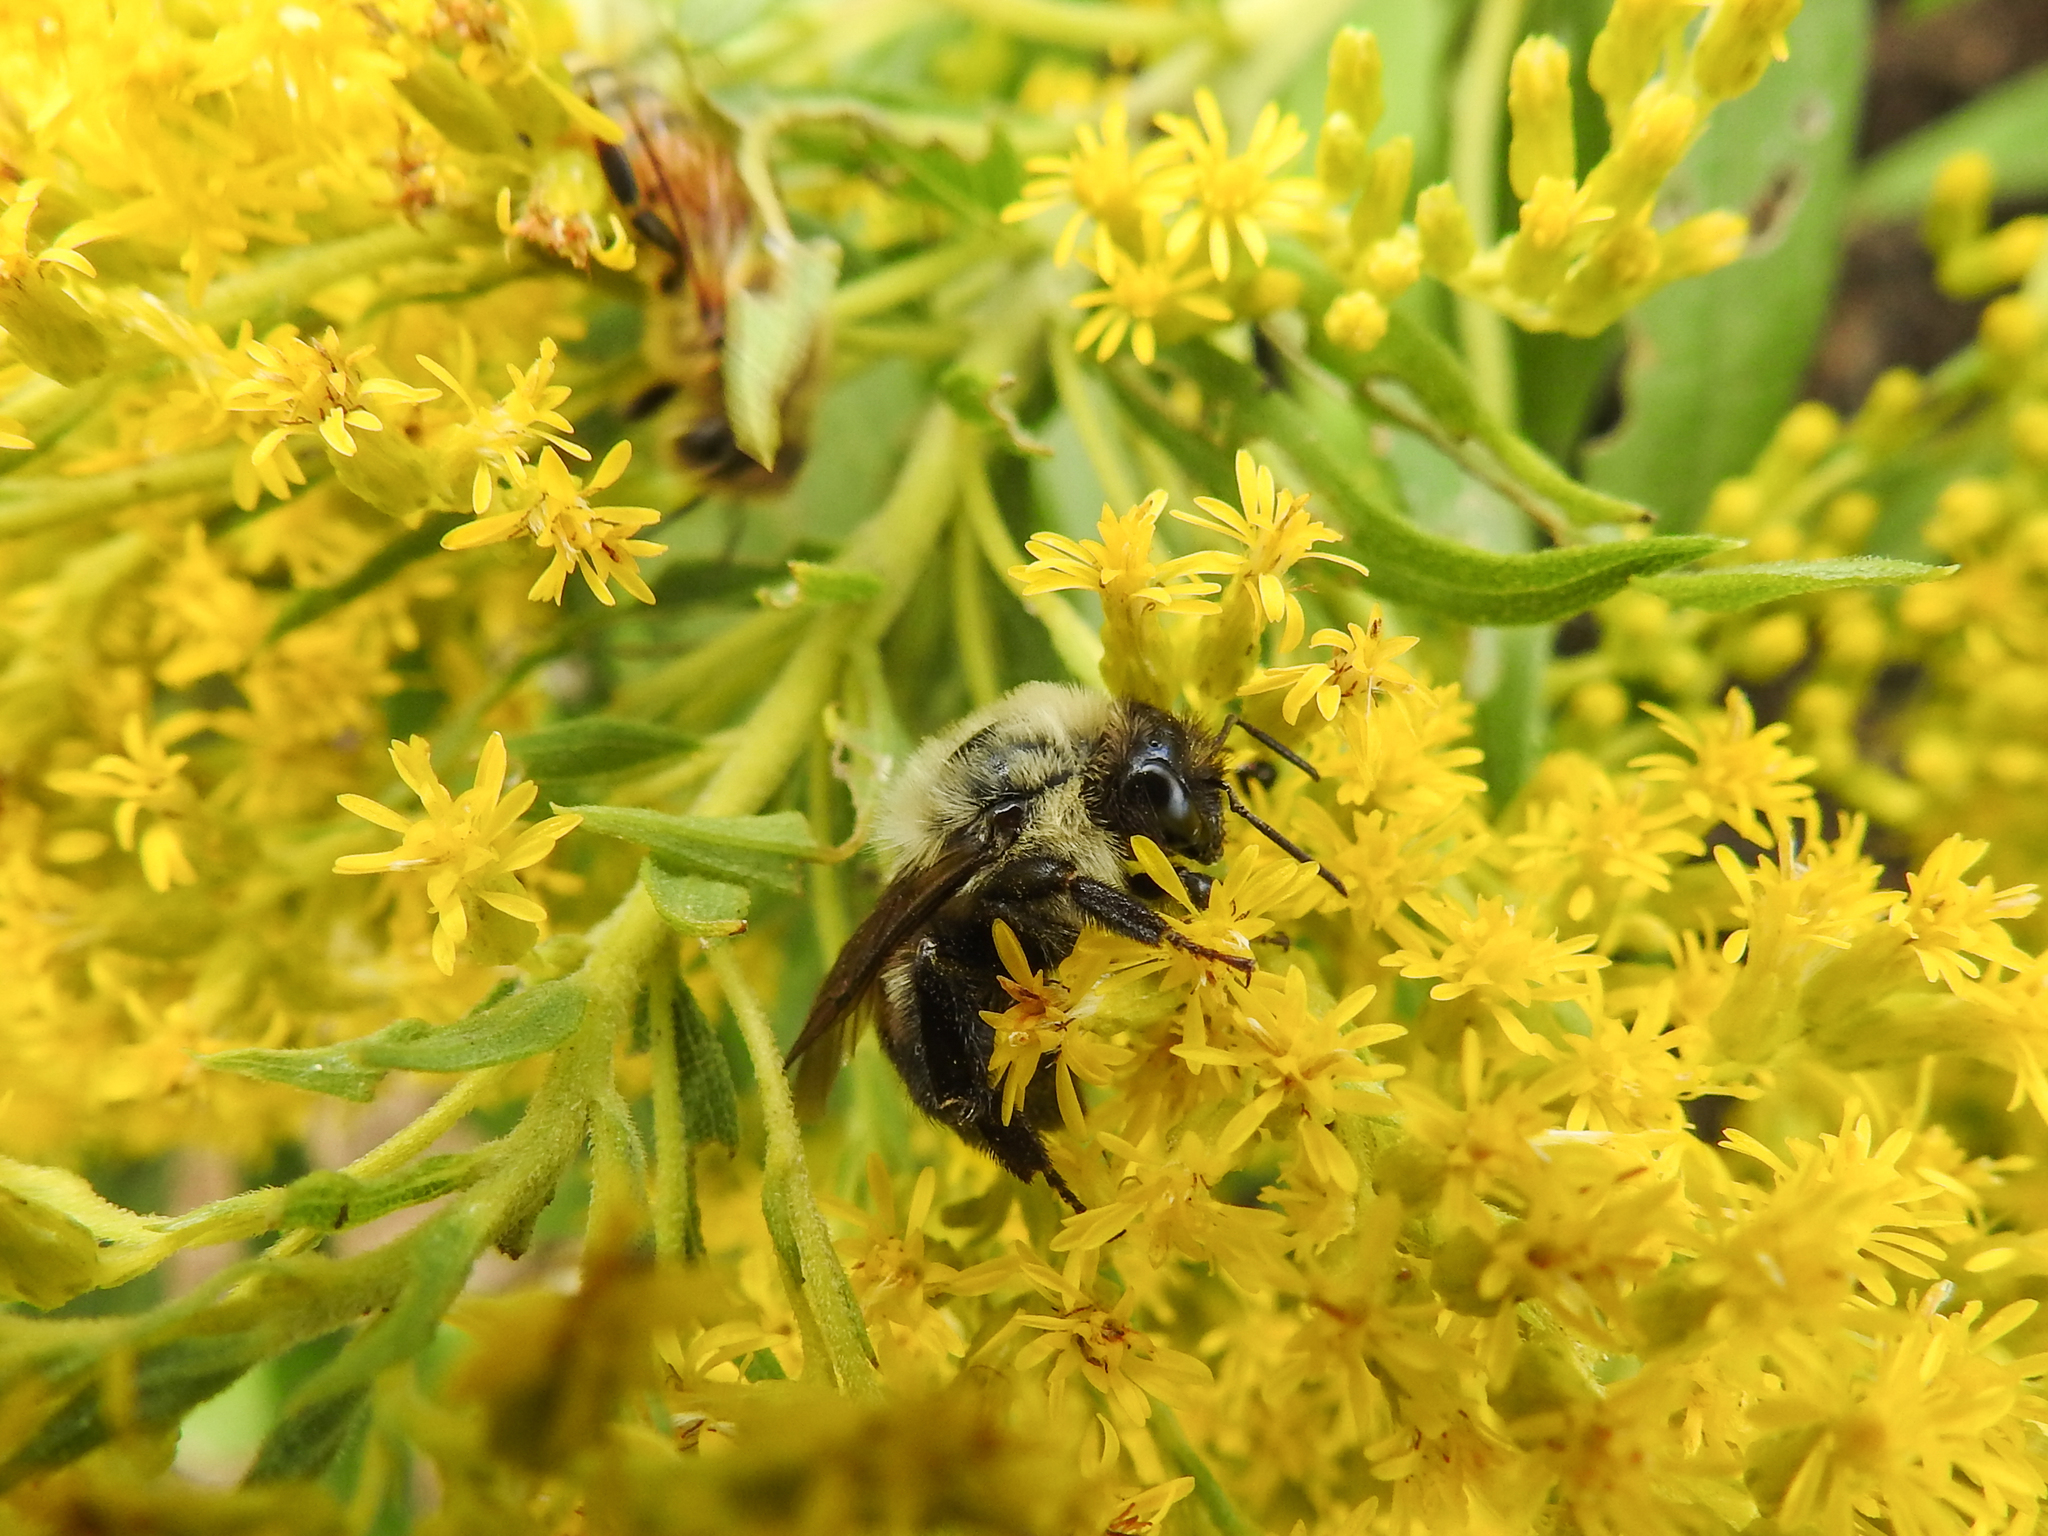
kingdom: Animalia
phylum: Arthropoda
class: Insecta
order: Hymenoptera
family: Apidae
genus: Bombus
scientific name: Bombus griseocollis
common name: Brown-belted bumble bee
